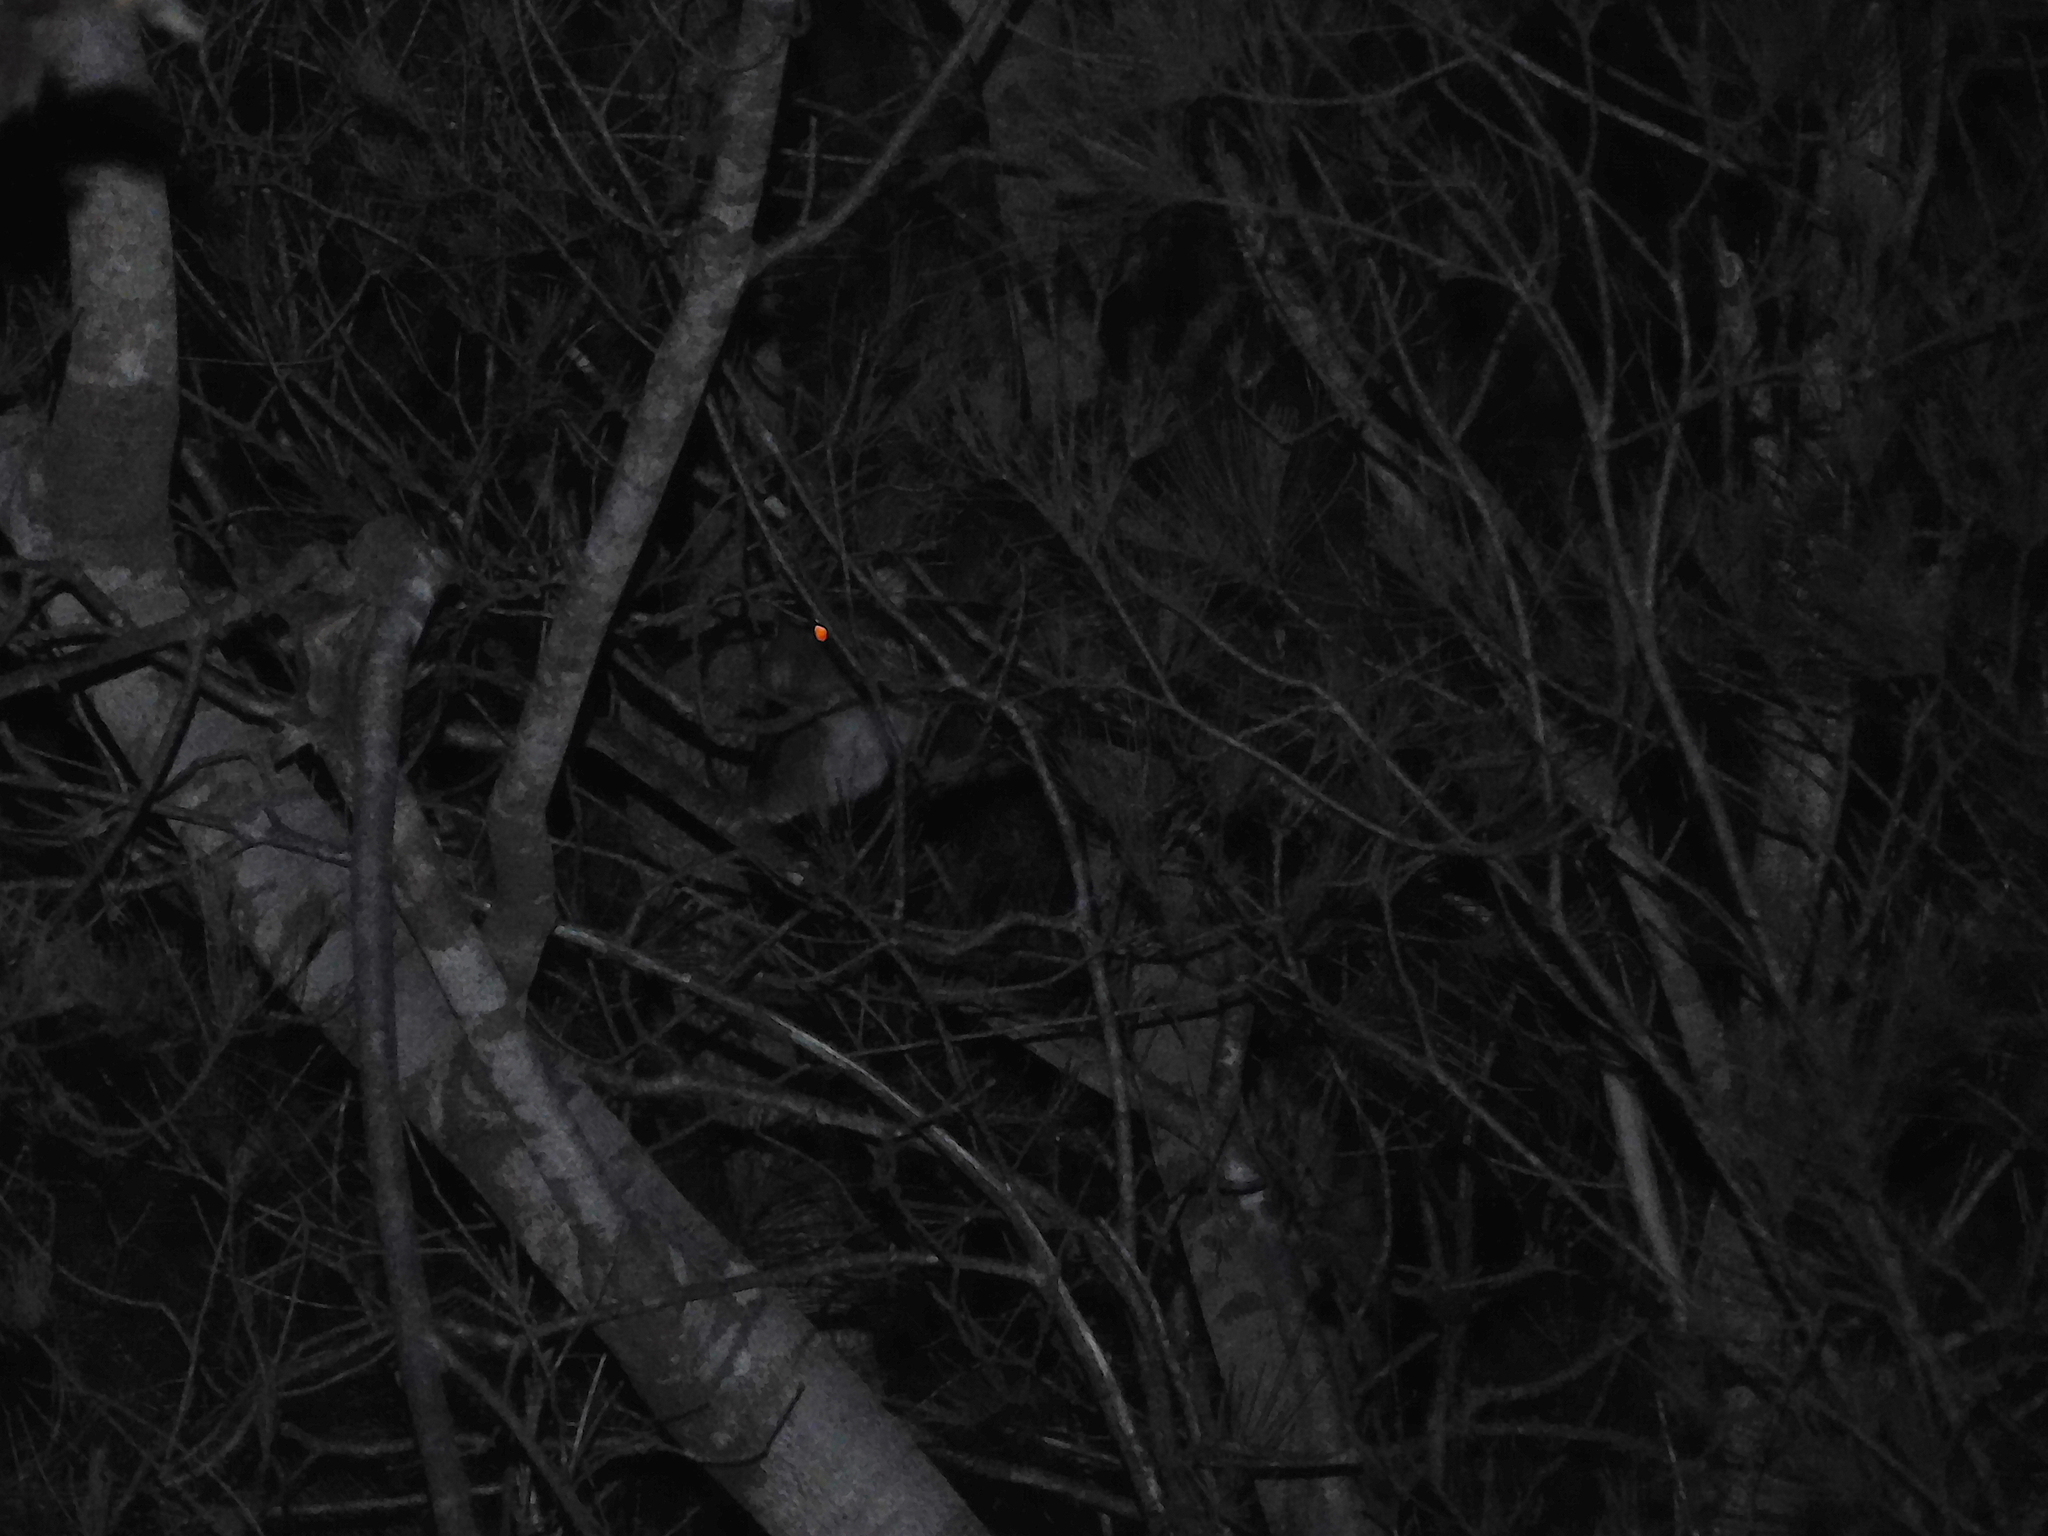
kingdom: Animalia
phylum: Chordata
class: Mammalia
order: Diprotodontia
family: Pseudocheiridae
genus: Pseudocheirus
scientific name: Pseudocheirus peregrinus
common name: Common ringtail possum
